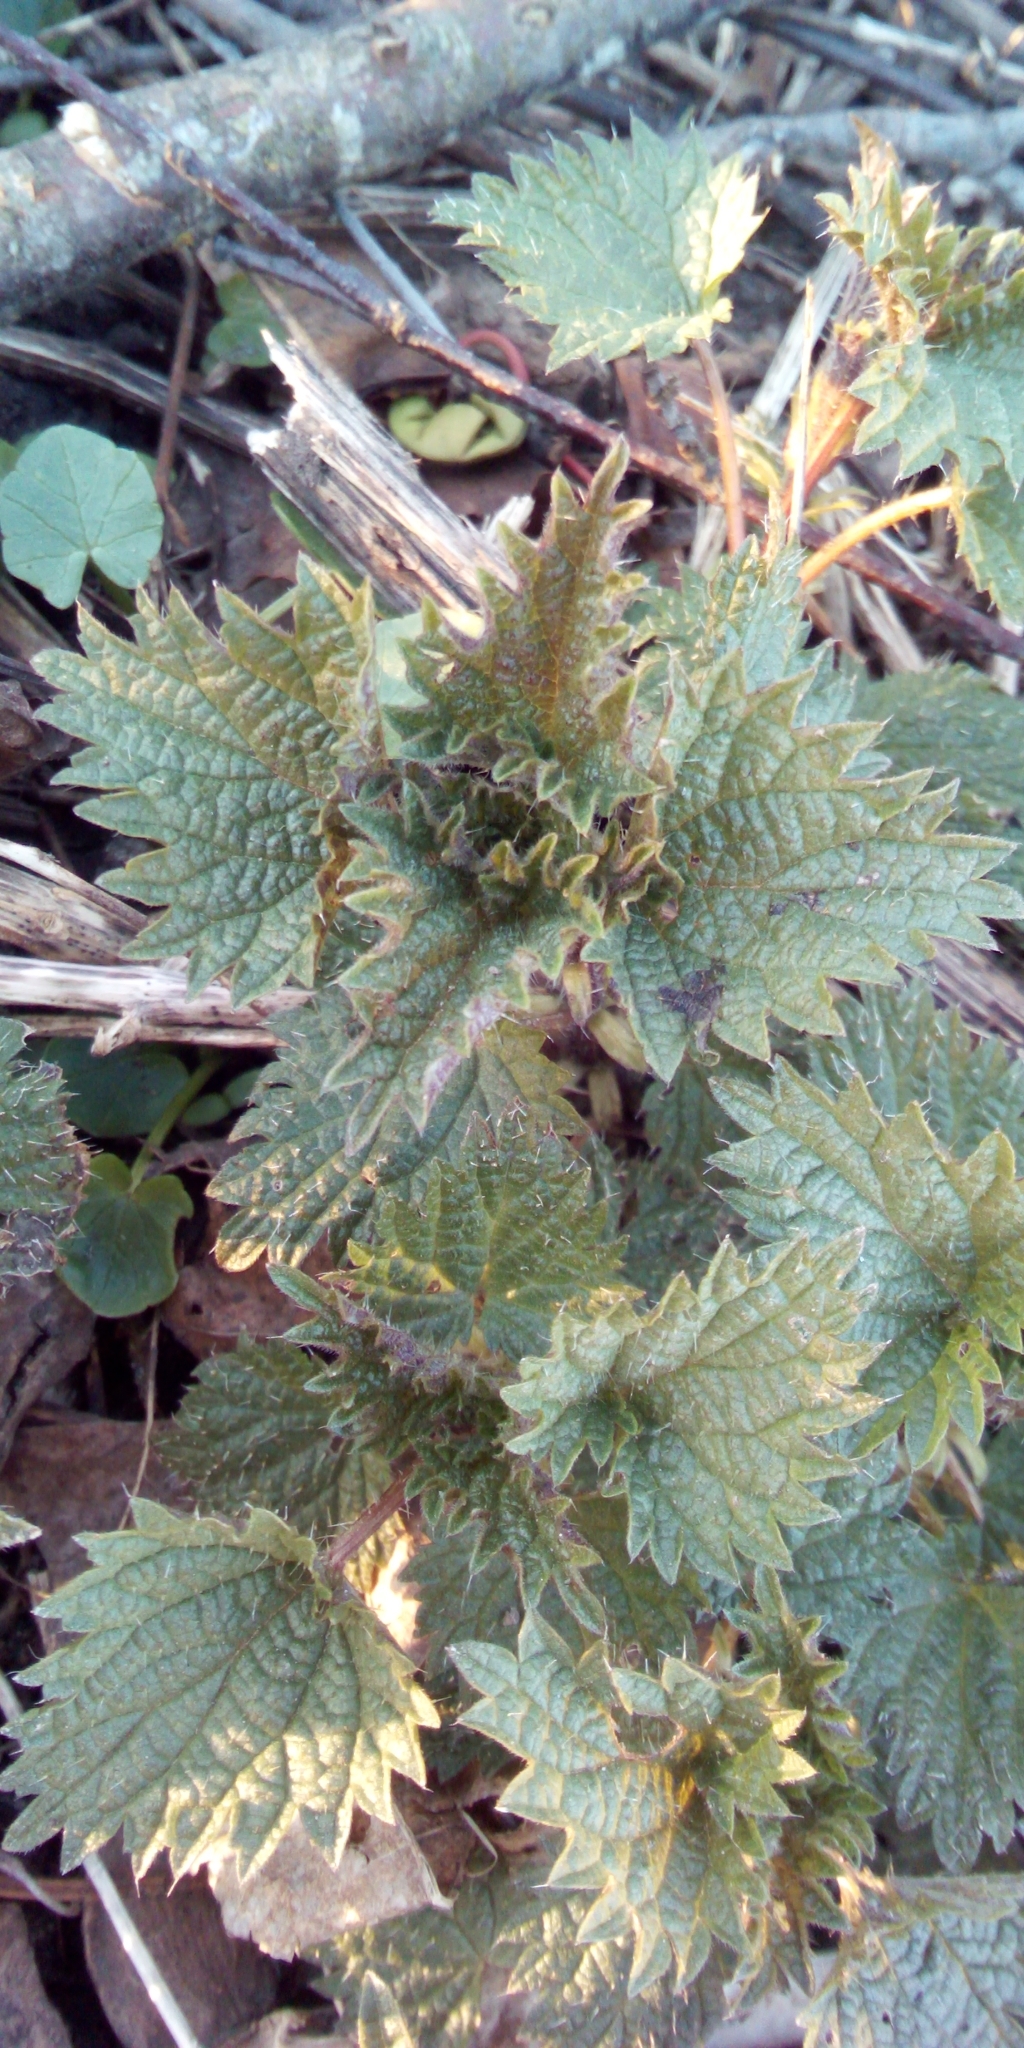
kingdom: Plantae
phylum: Tracheophyta
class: Magnoliopsida
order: Rosales
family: Urticaceae
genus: Urtica
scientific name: Urtica dioica
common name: Common nettle
